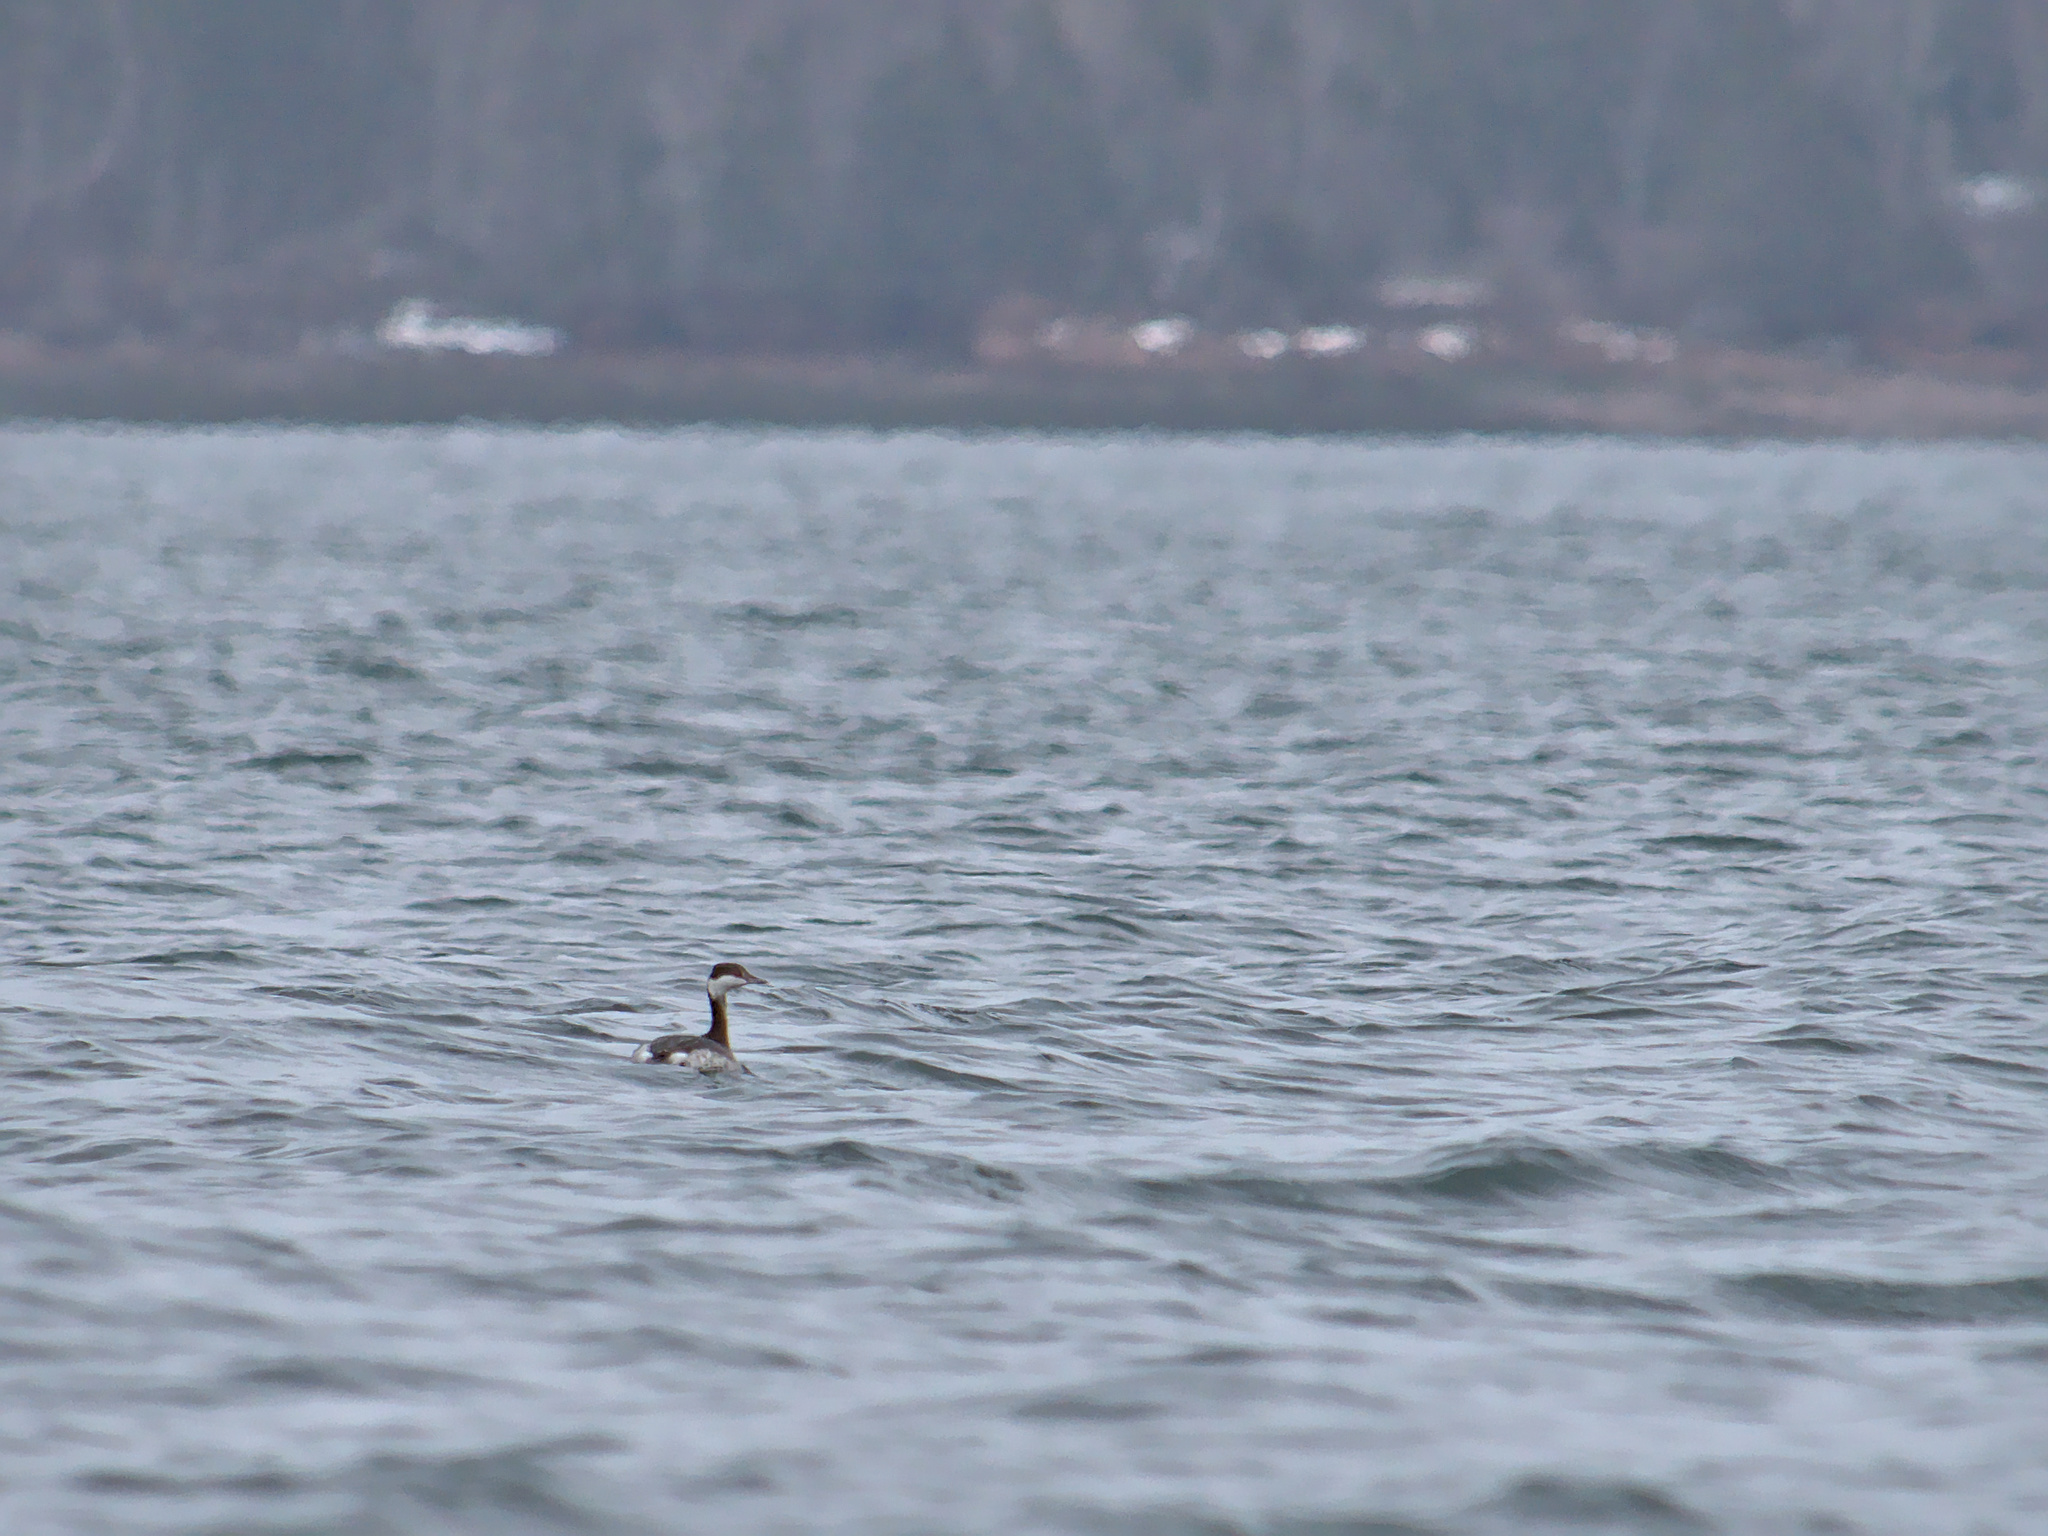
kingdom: Animalia
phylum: Chordata
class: Aves
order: Podicipediformes
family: Podicipedidae
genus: Podiceps
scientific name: Podiceps auritus
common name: Horned grebe
